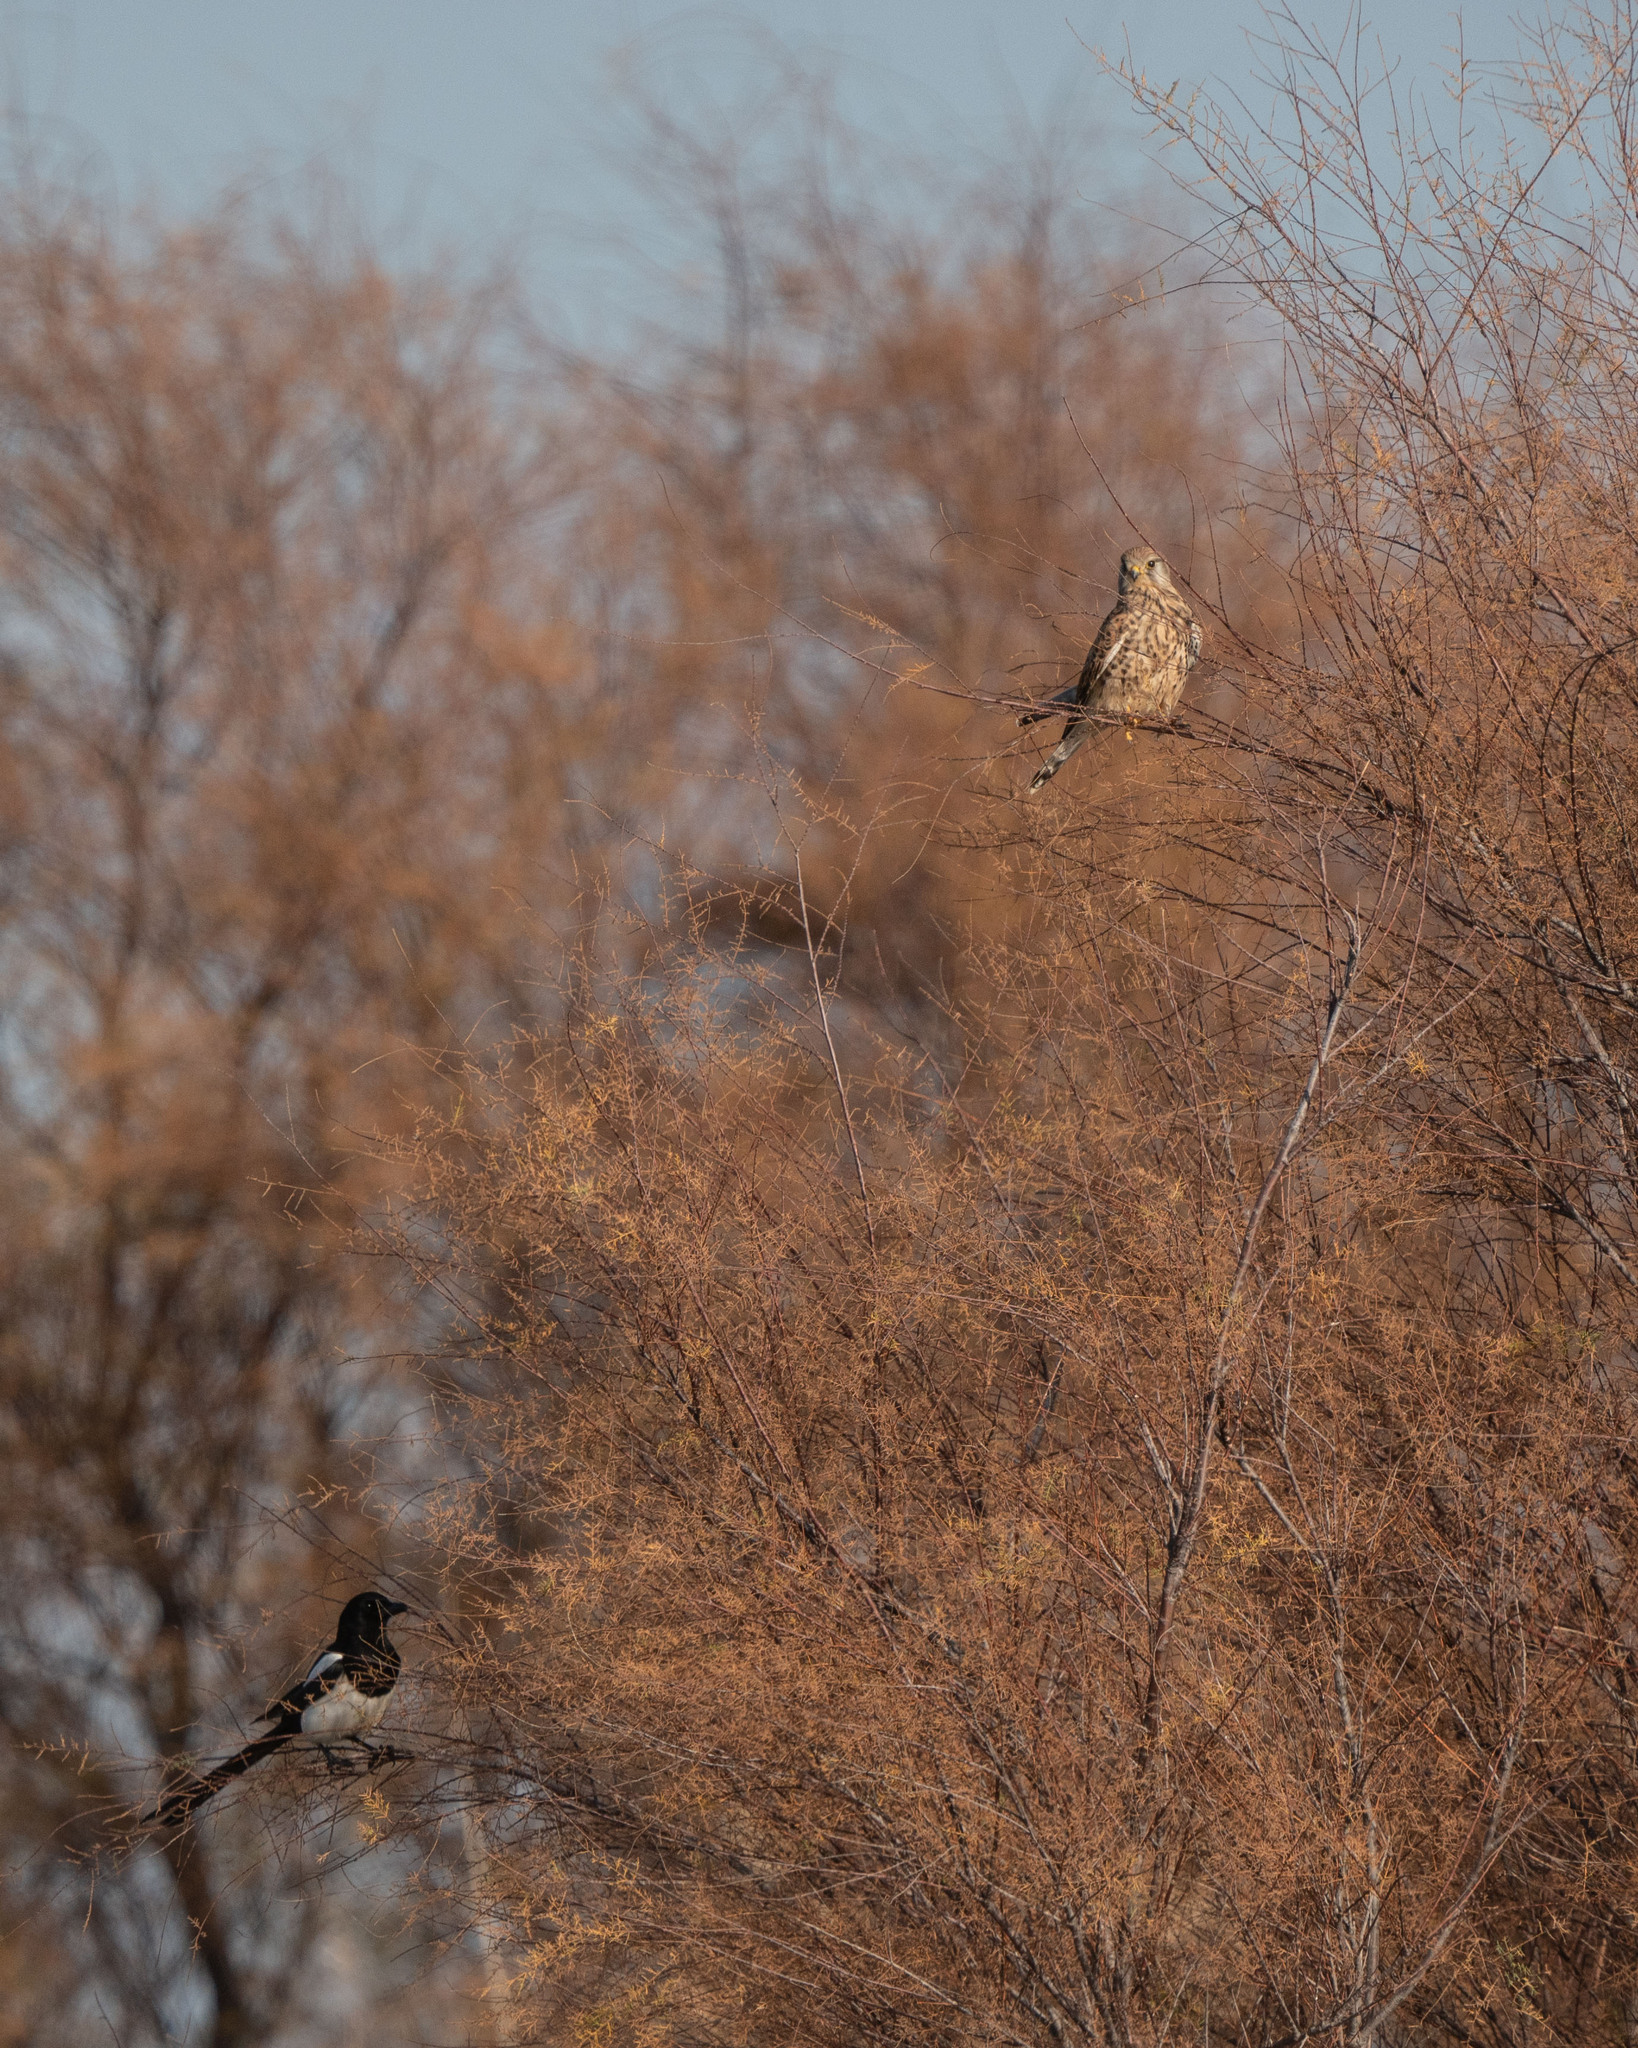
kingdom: Animalia
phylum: Chordata
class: Aves
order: Falconiformes
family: Falconidae
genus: Falco
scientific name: Falco tinnunculus
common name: Common kestrel
